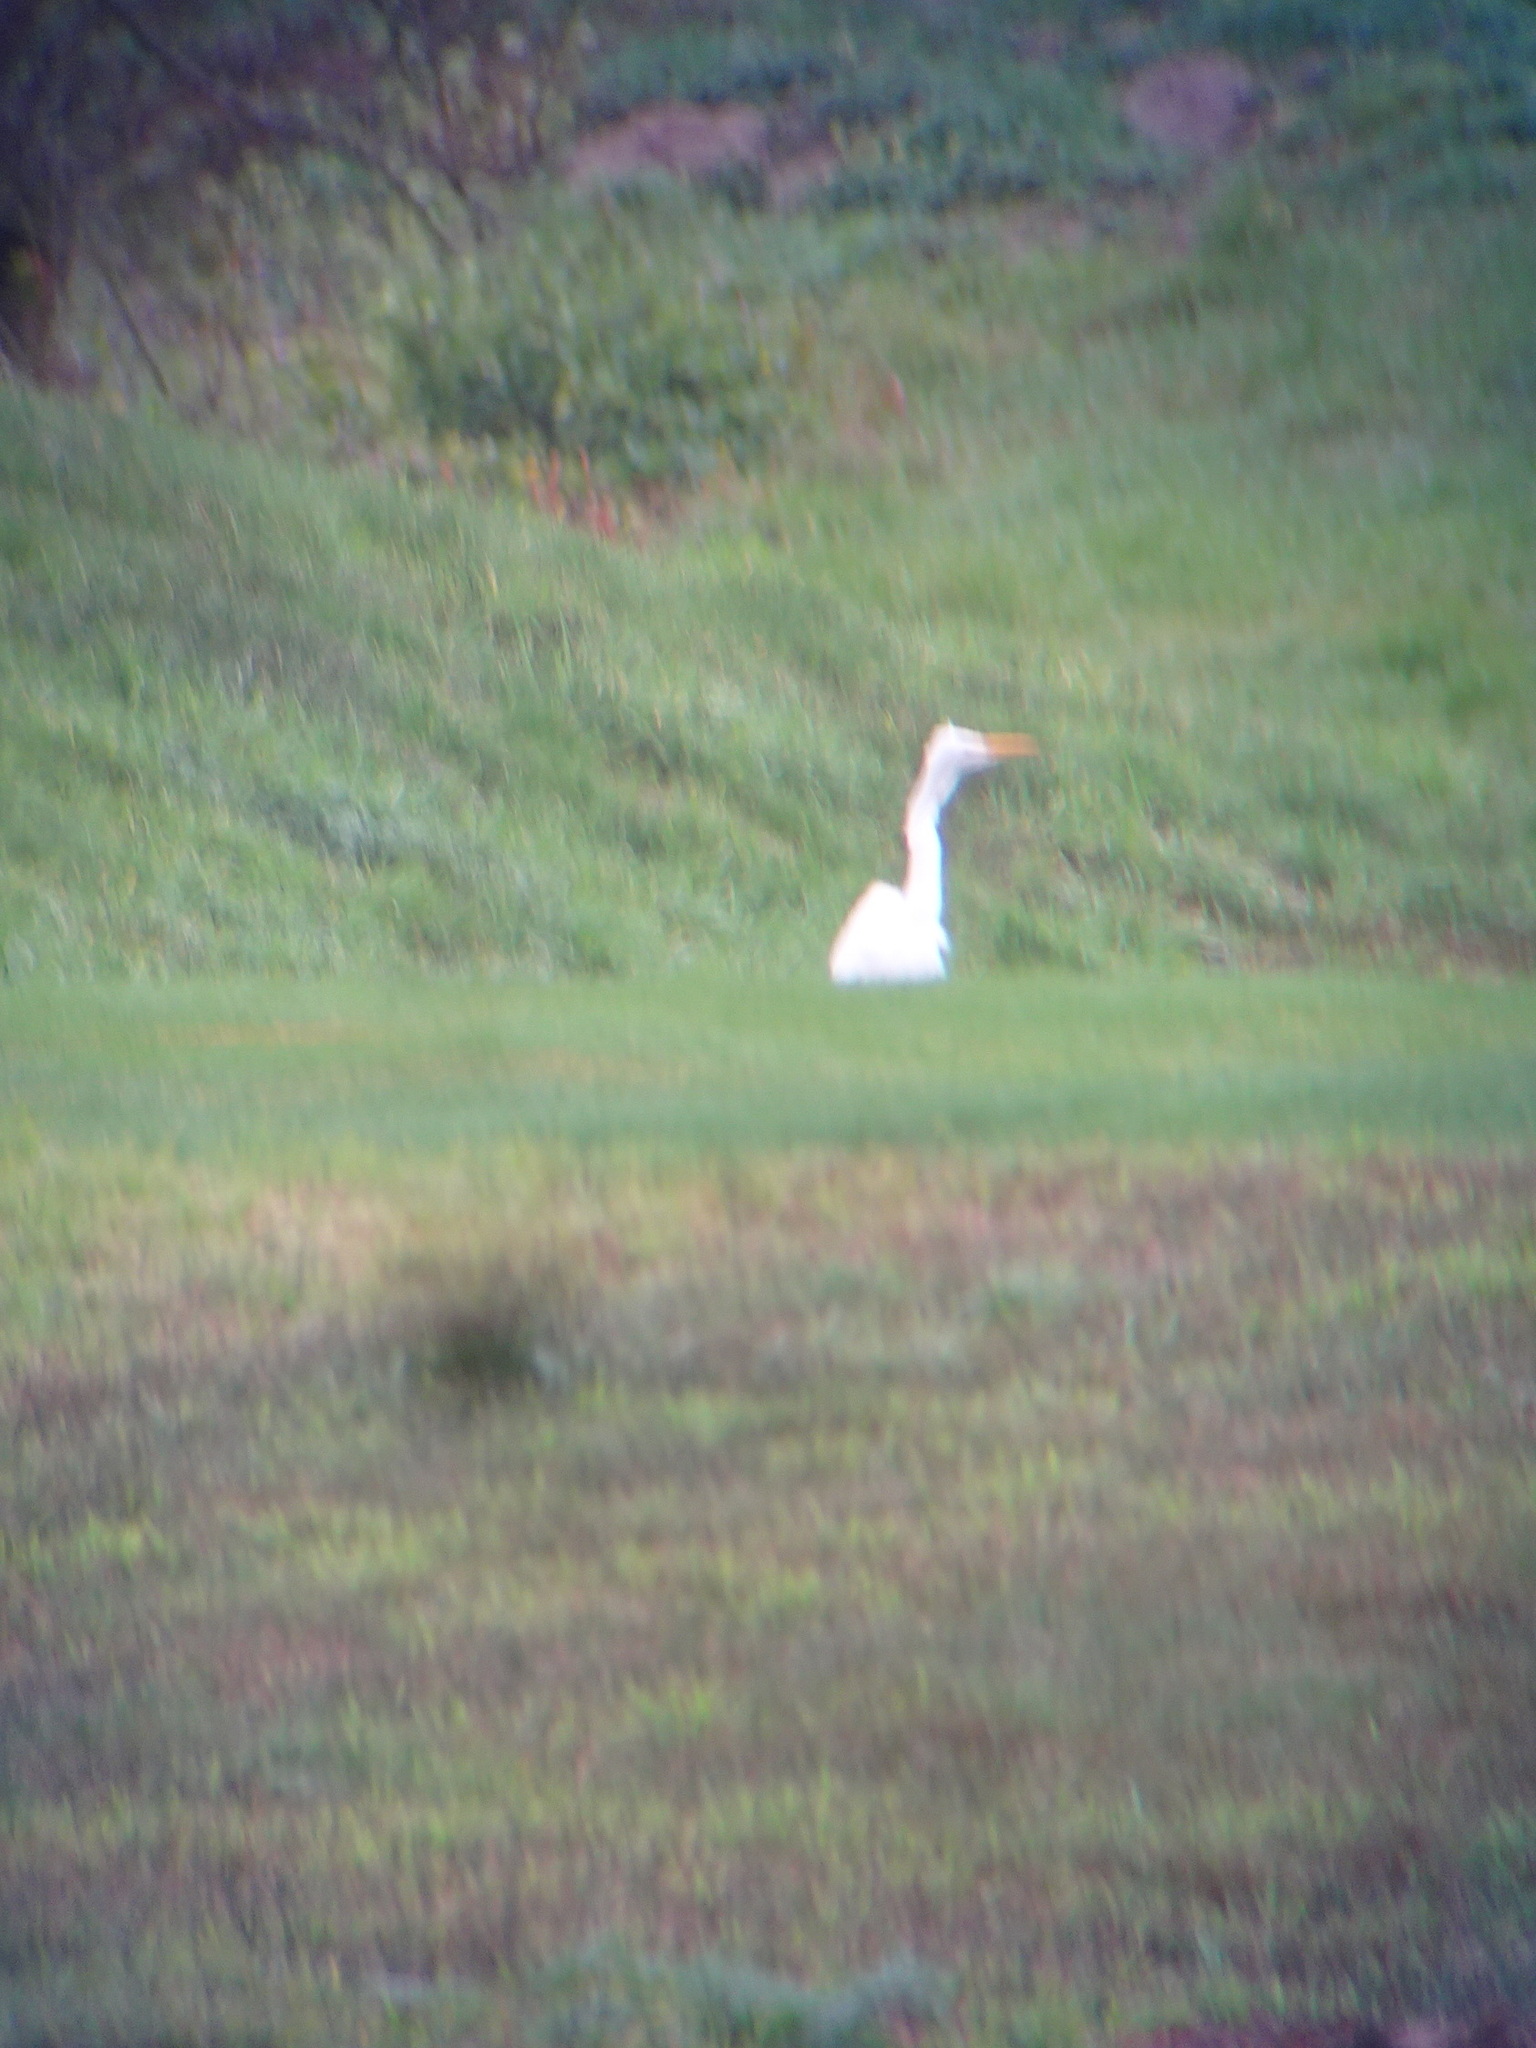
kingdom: Animalia
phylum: Chordata
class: Aves
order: Pelecaniformes
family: Ardeidae
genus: Ardea
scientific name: Ardea alba
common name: Great egret
